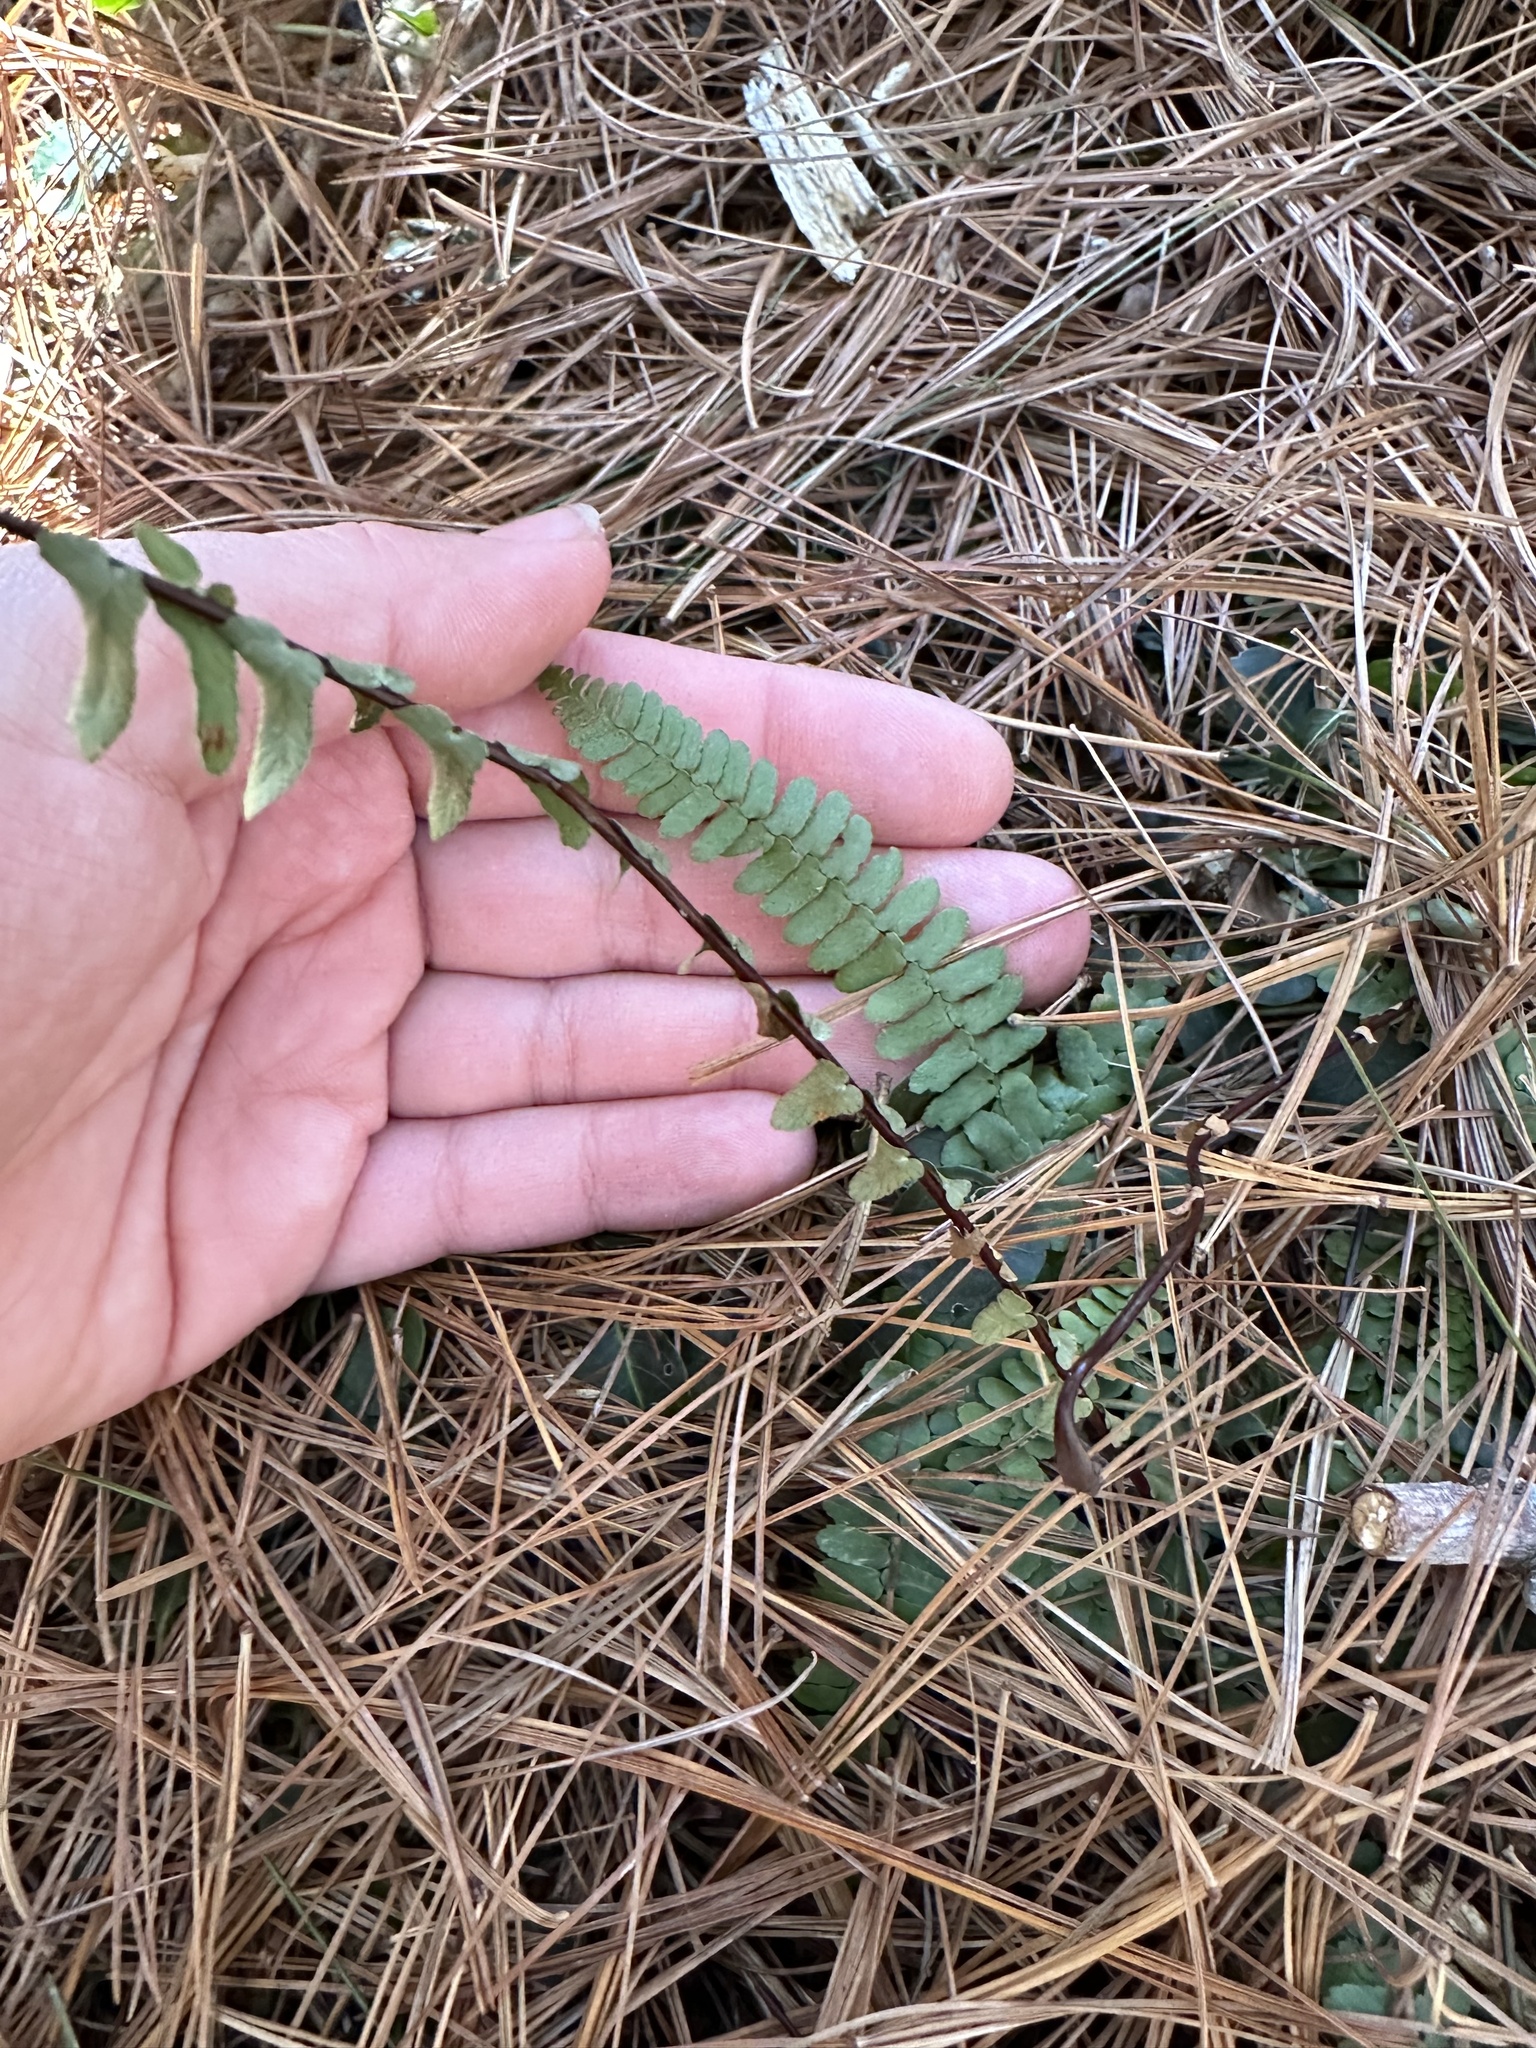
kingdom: Plantae
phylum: Tracheophyta
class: Polypodiopsida
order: Polypodiales
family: Aspleniaceae
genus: Asplenium
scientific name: Asplenium platyneuron
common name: Ebony spleenwort
